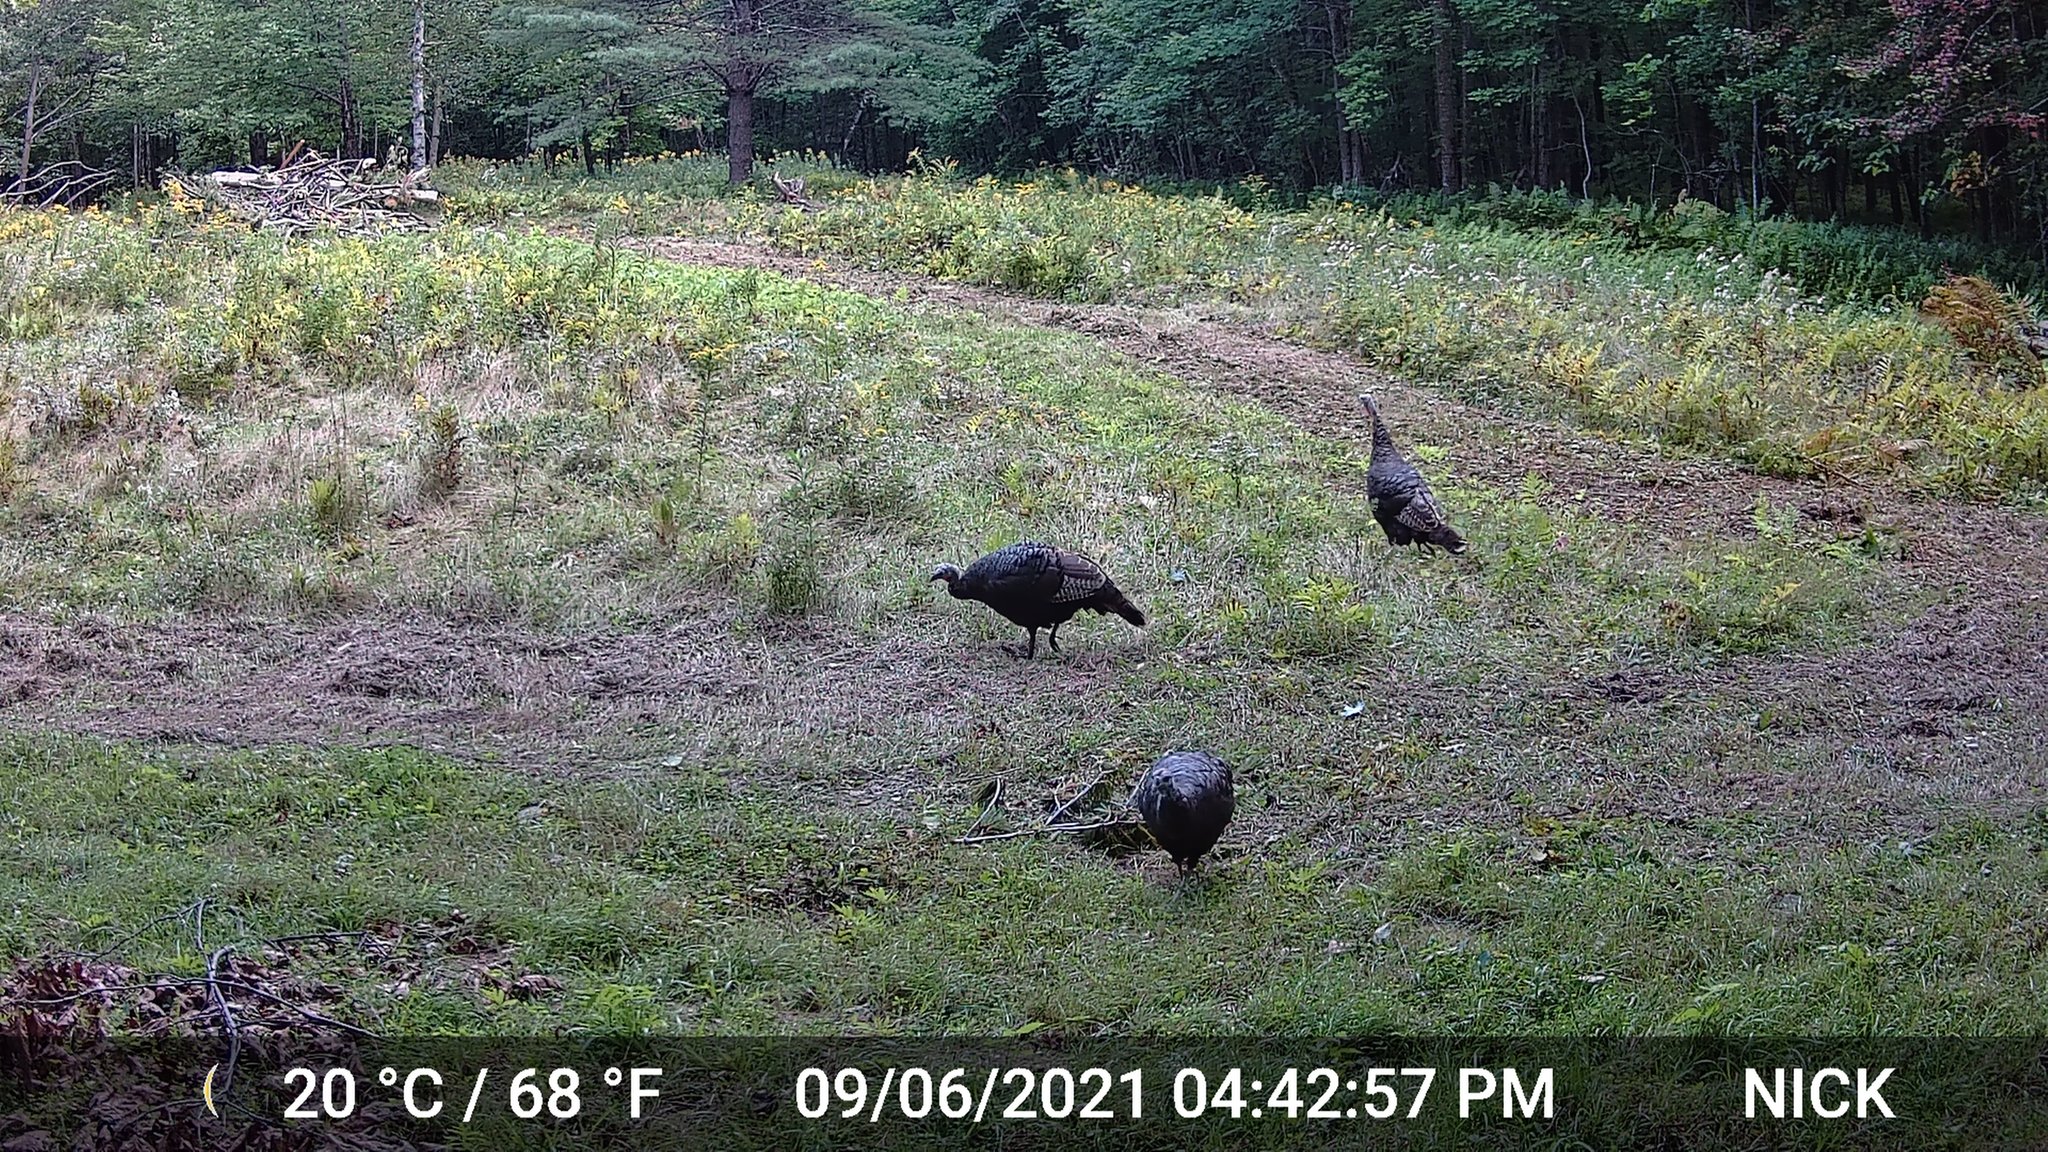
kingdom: Animalia
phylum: Chordata
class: Aves
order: Galliformes
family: Phasianidae
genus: Meleagris
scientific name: Meleagris gallopavo
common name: Wild turkey
